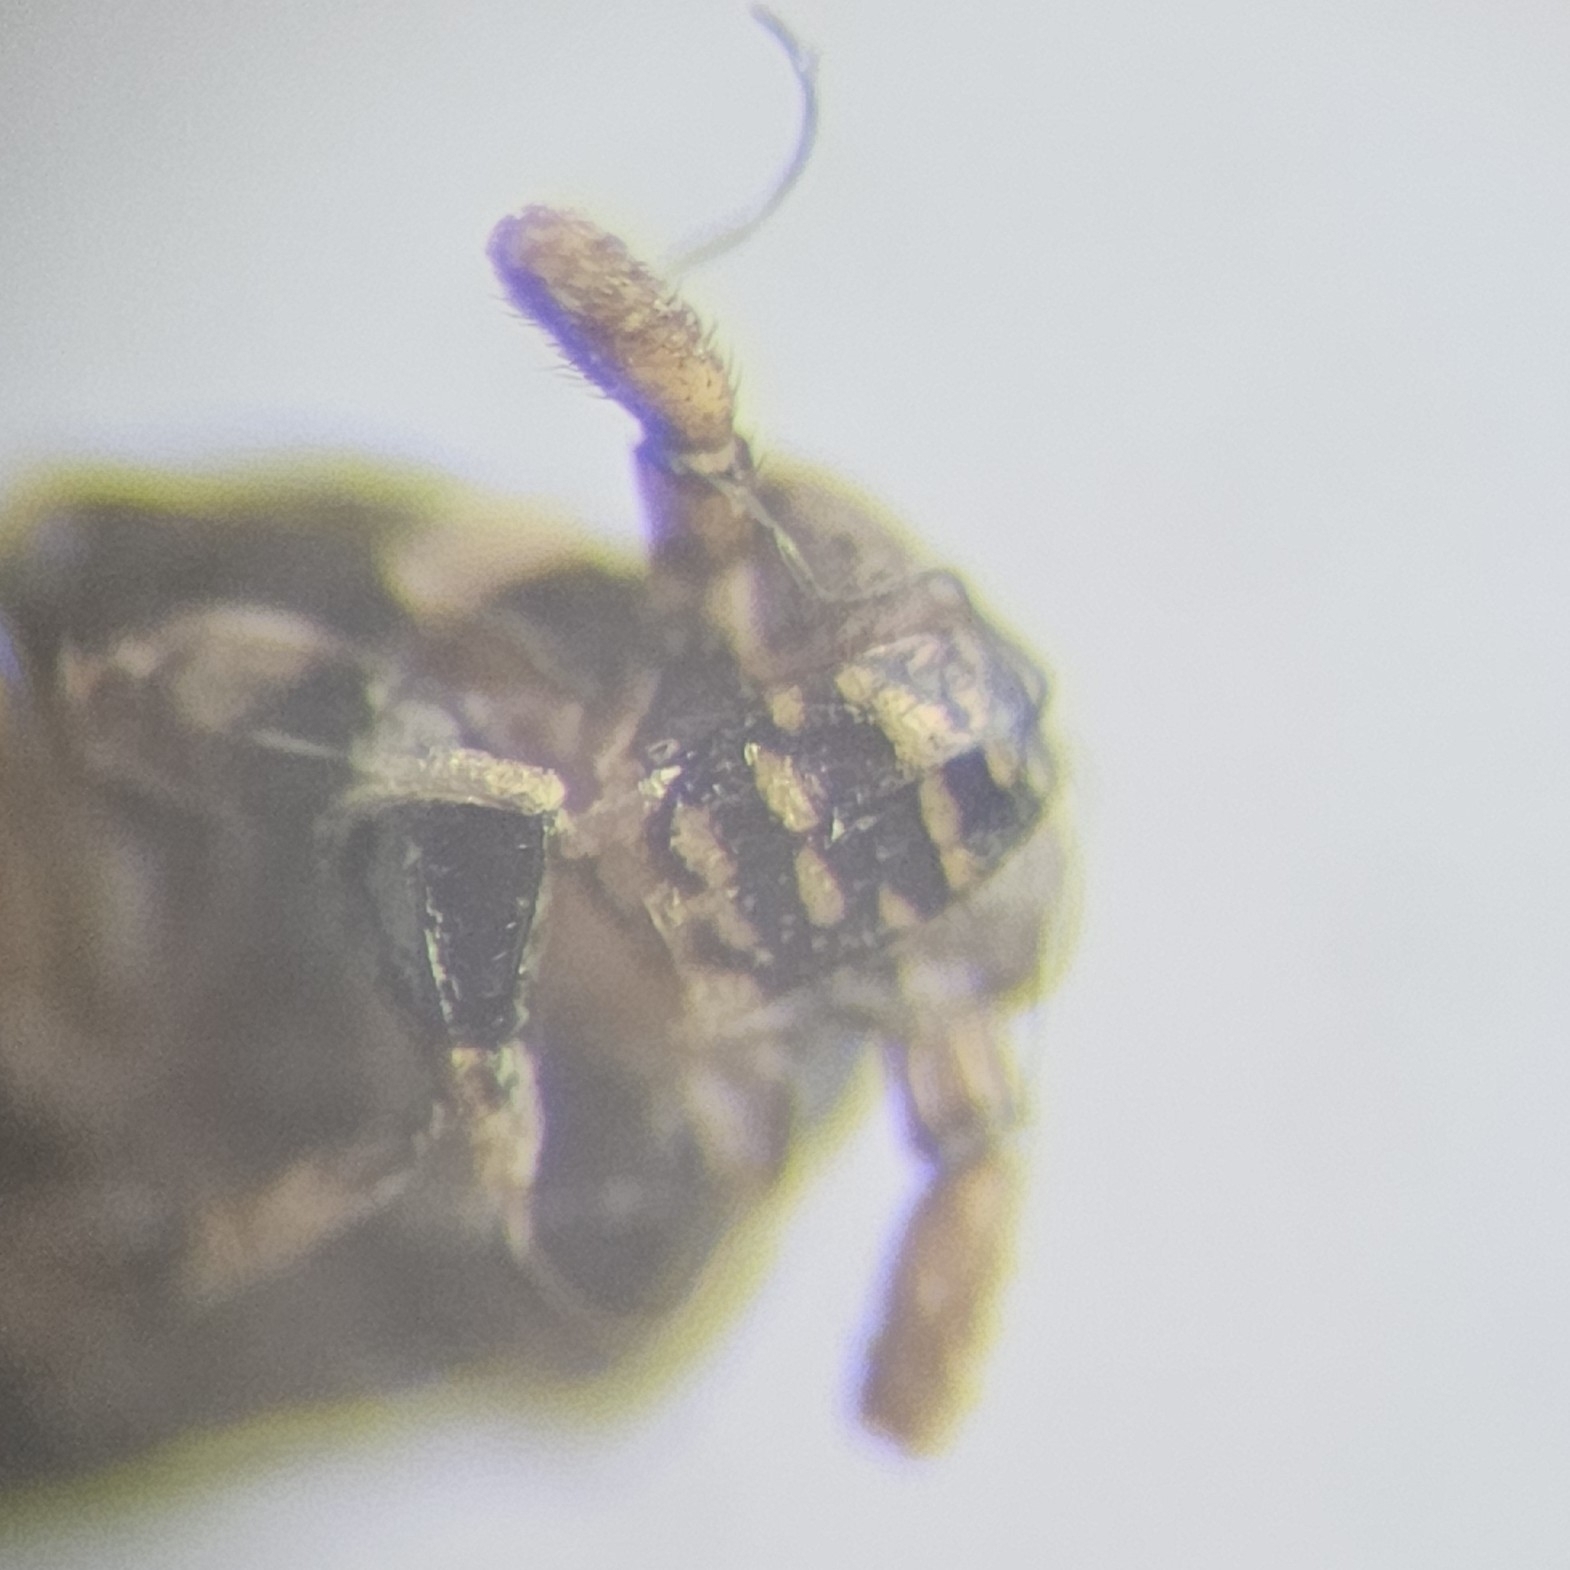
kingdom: Animalia
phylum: Arthropoda
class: Insecta
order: Hemiptera
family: Delphacidae
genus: Pissonotus
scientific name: Pissonotus flabellatus
